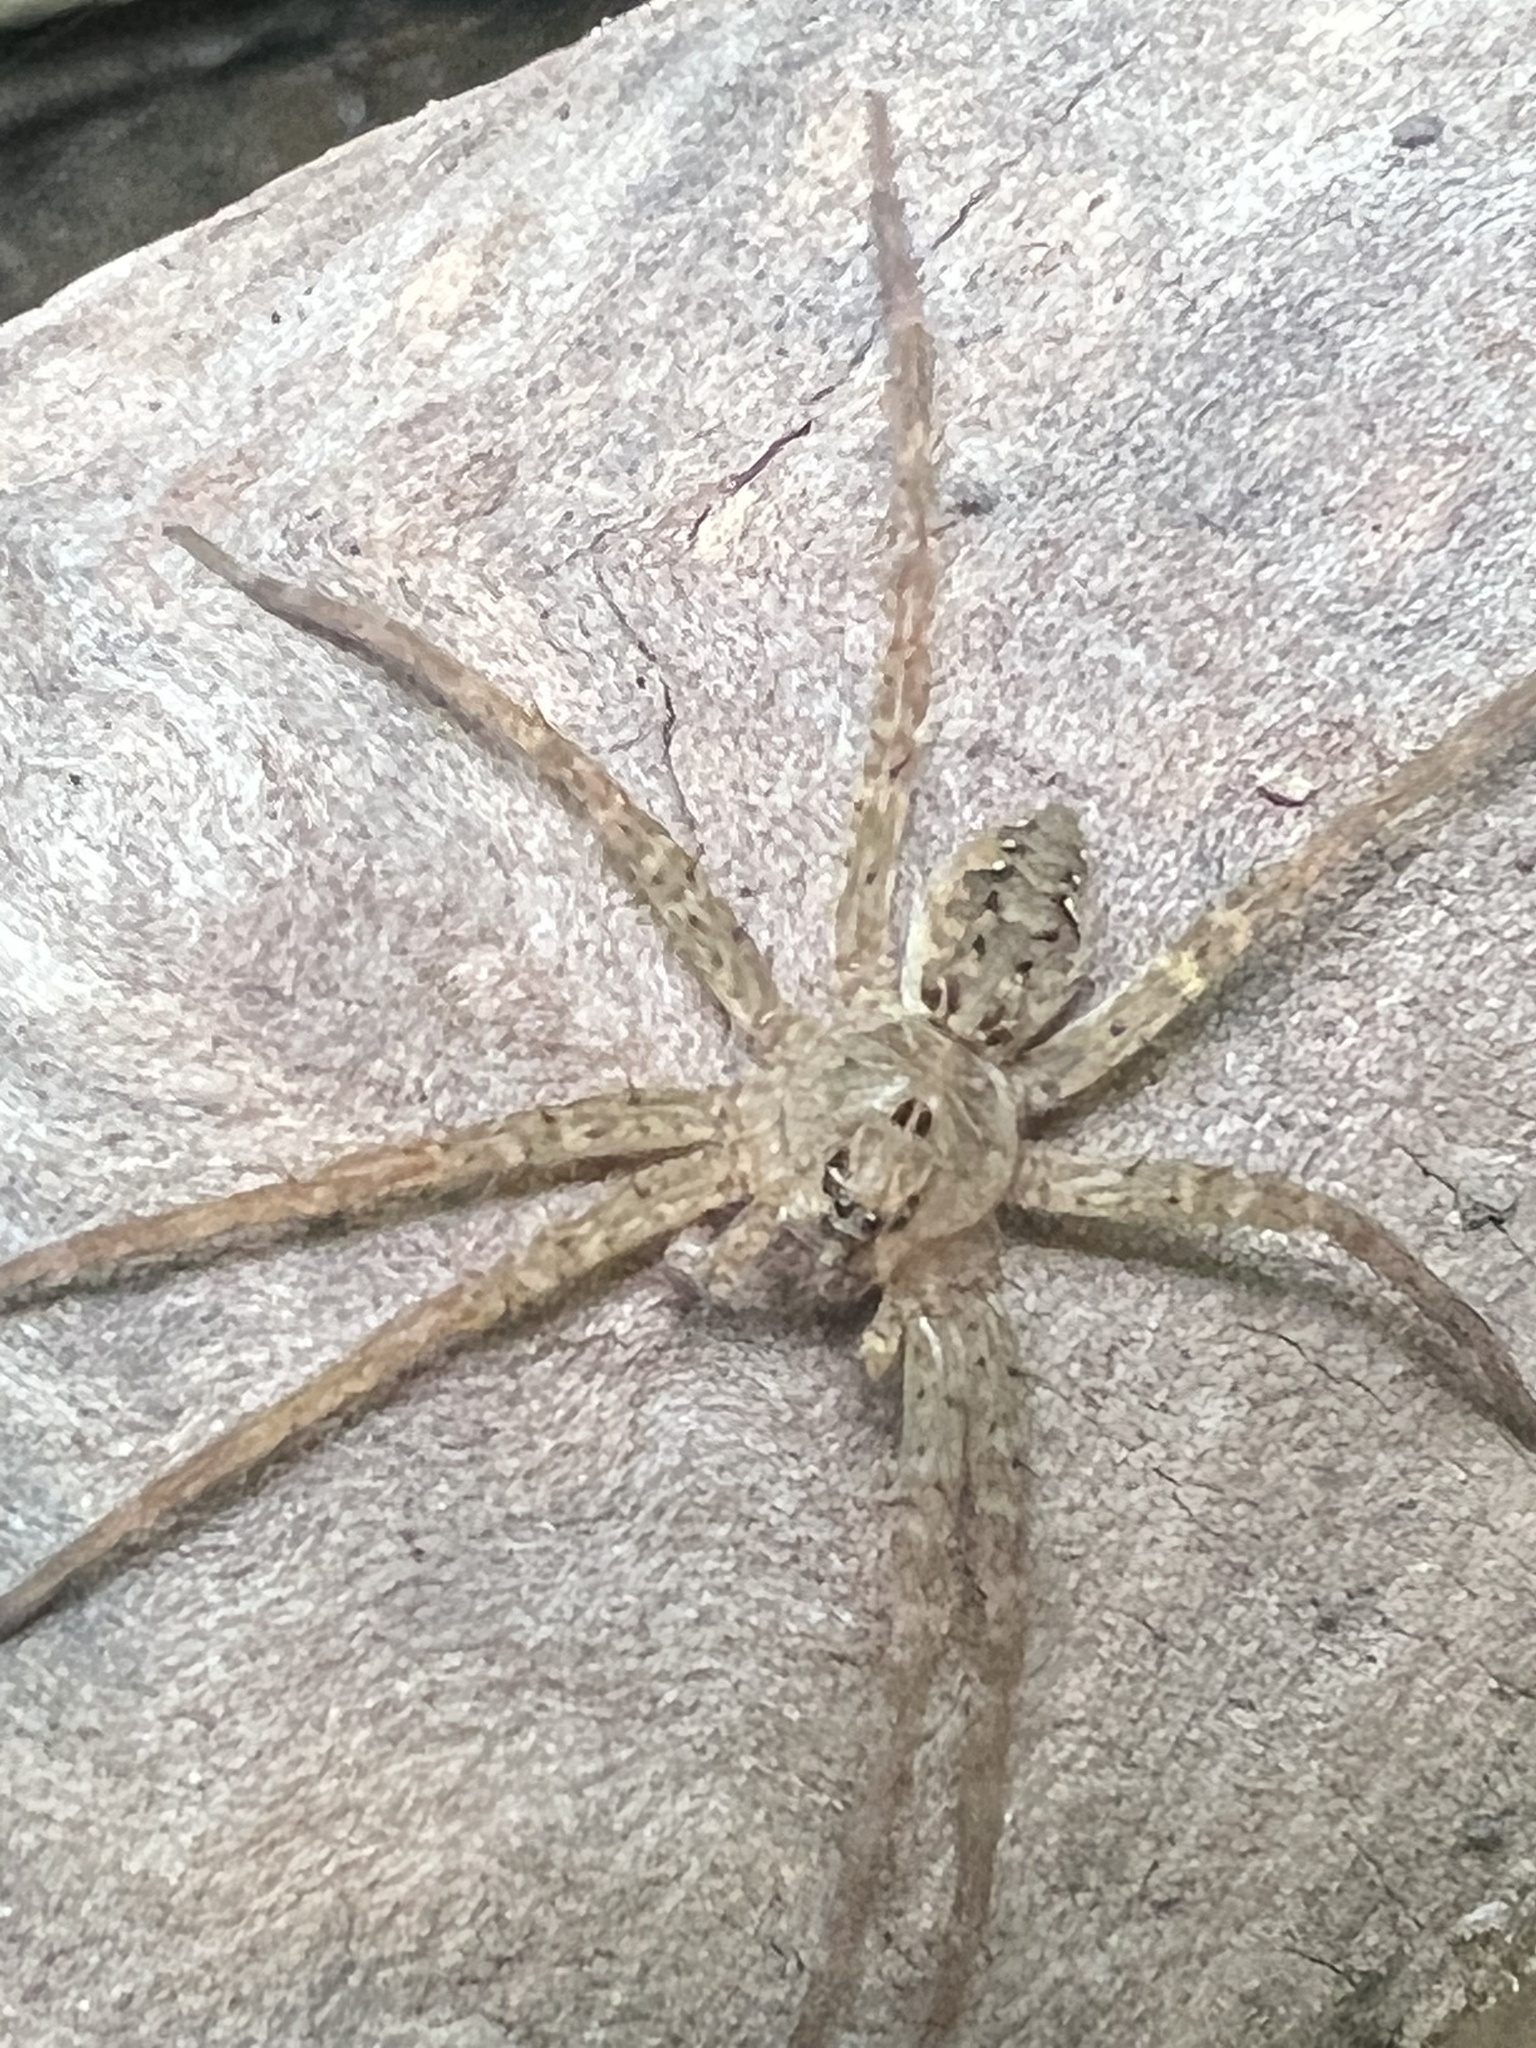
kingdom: Animalia
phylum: Arthropoda
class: Arachnida
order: Araneae
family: Pisauridae
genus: Dolomedes
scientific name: Dolomedes vittatus
